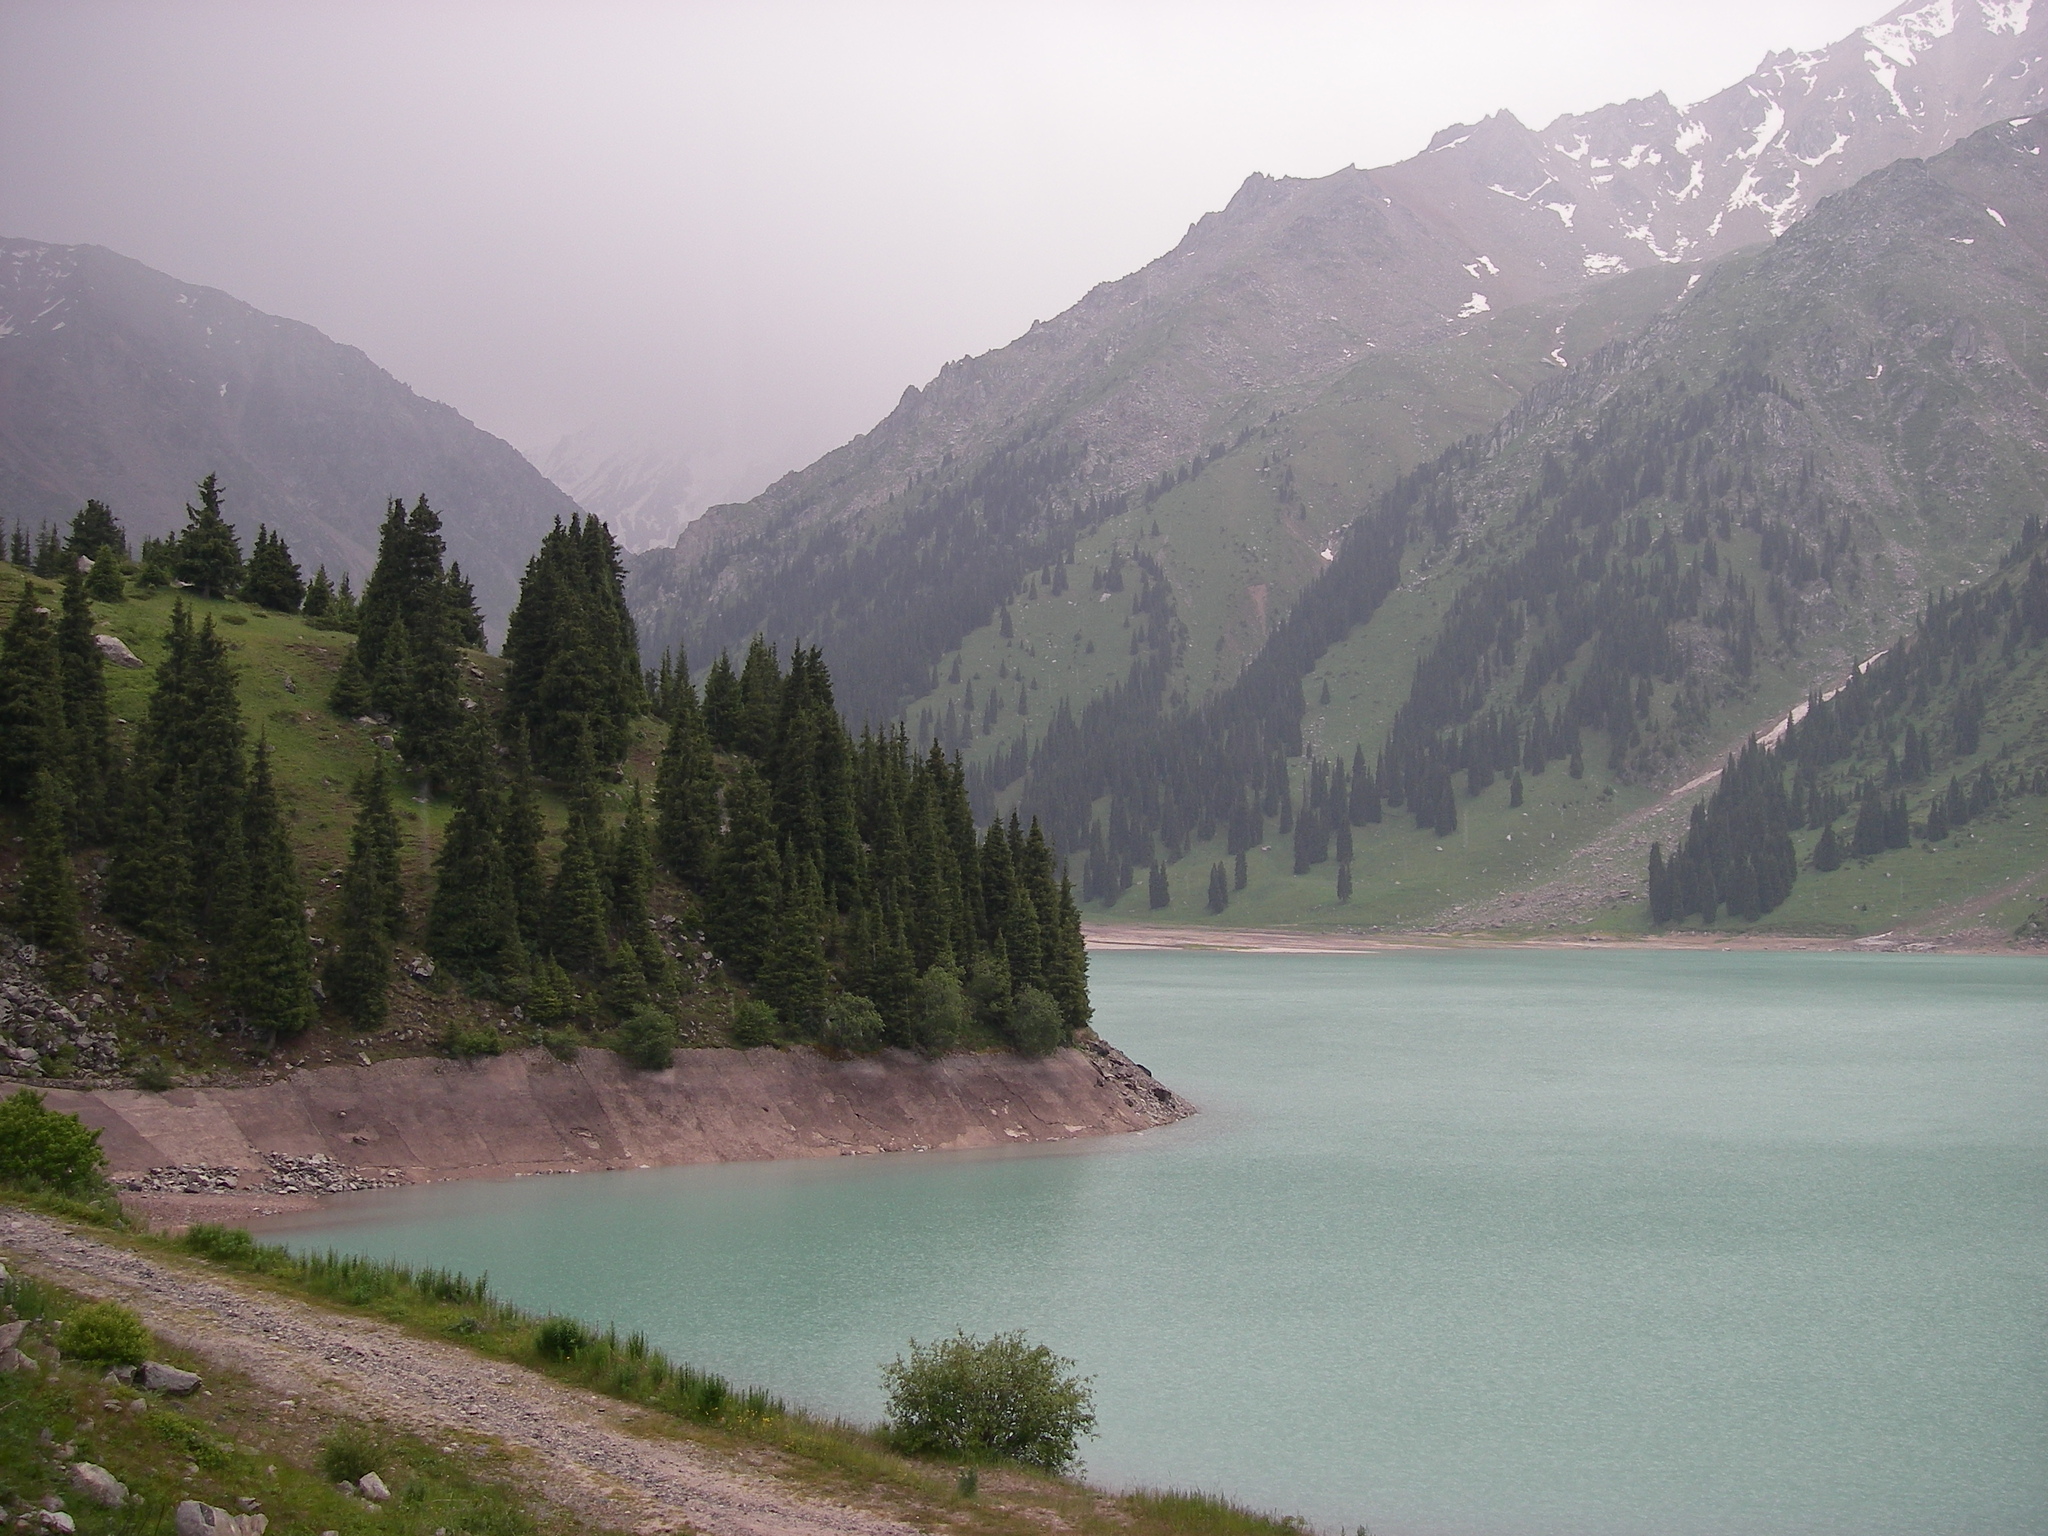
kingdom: Plantae
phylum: Tracheophyta
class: Pinopsida
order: Pinales
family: Pinaceae
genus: Picea
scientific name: Picea schrenkiana
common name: Asian spruce
